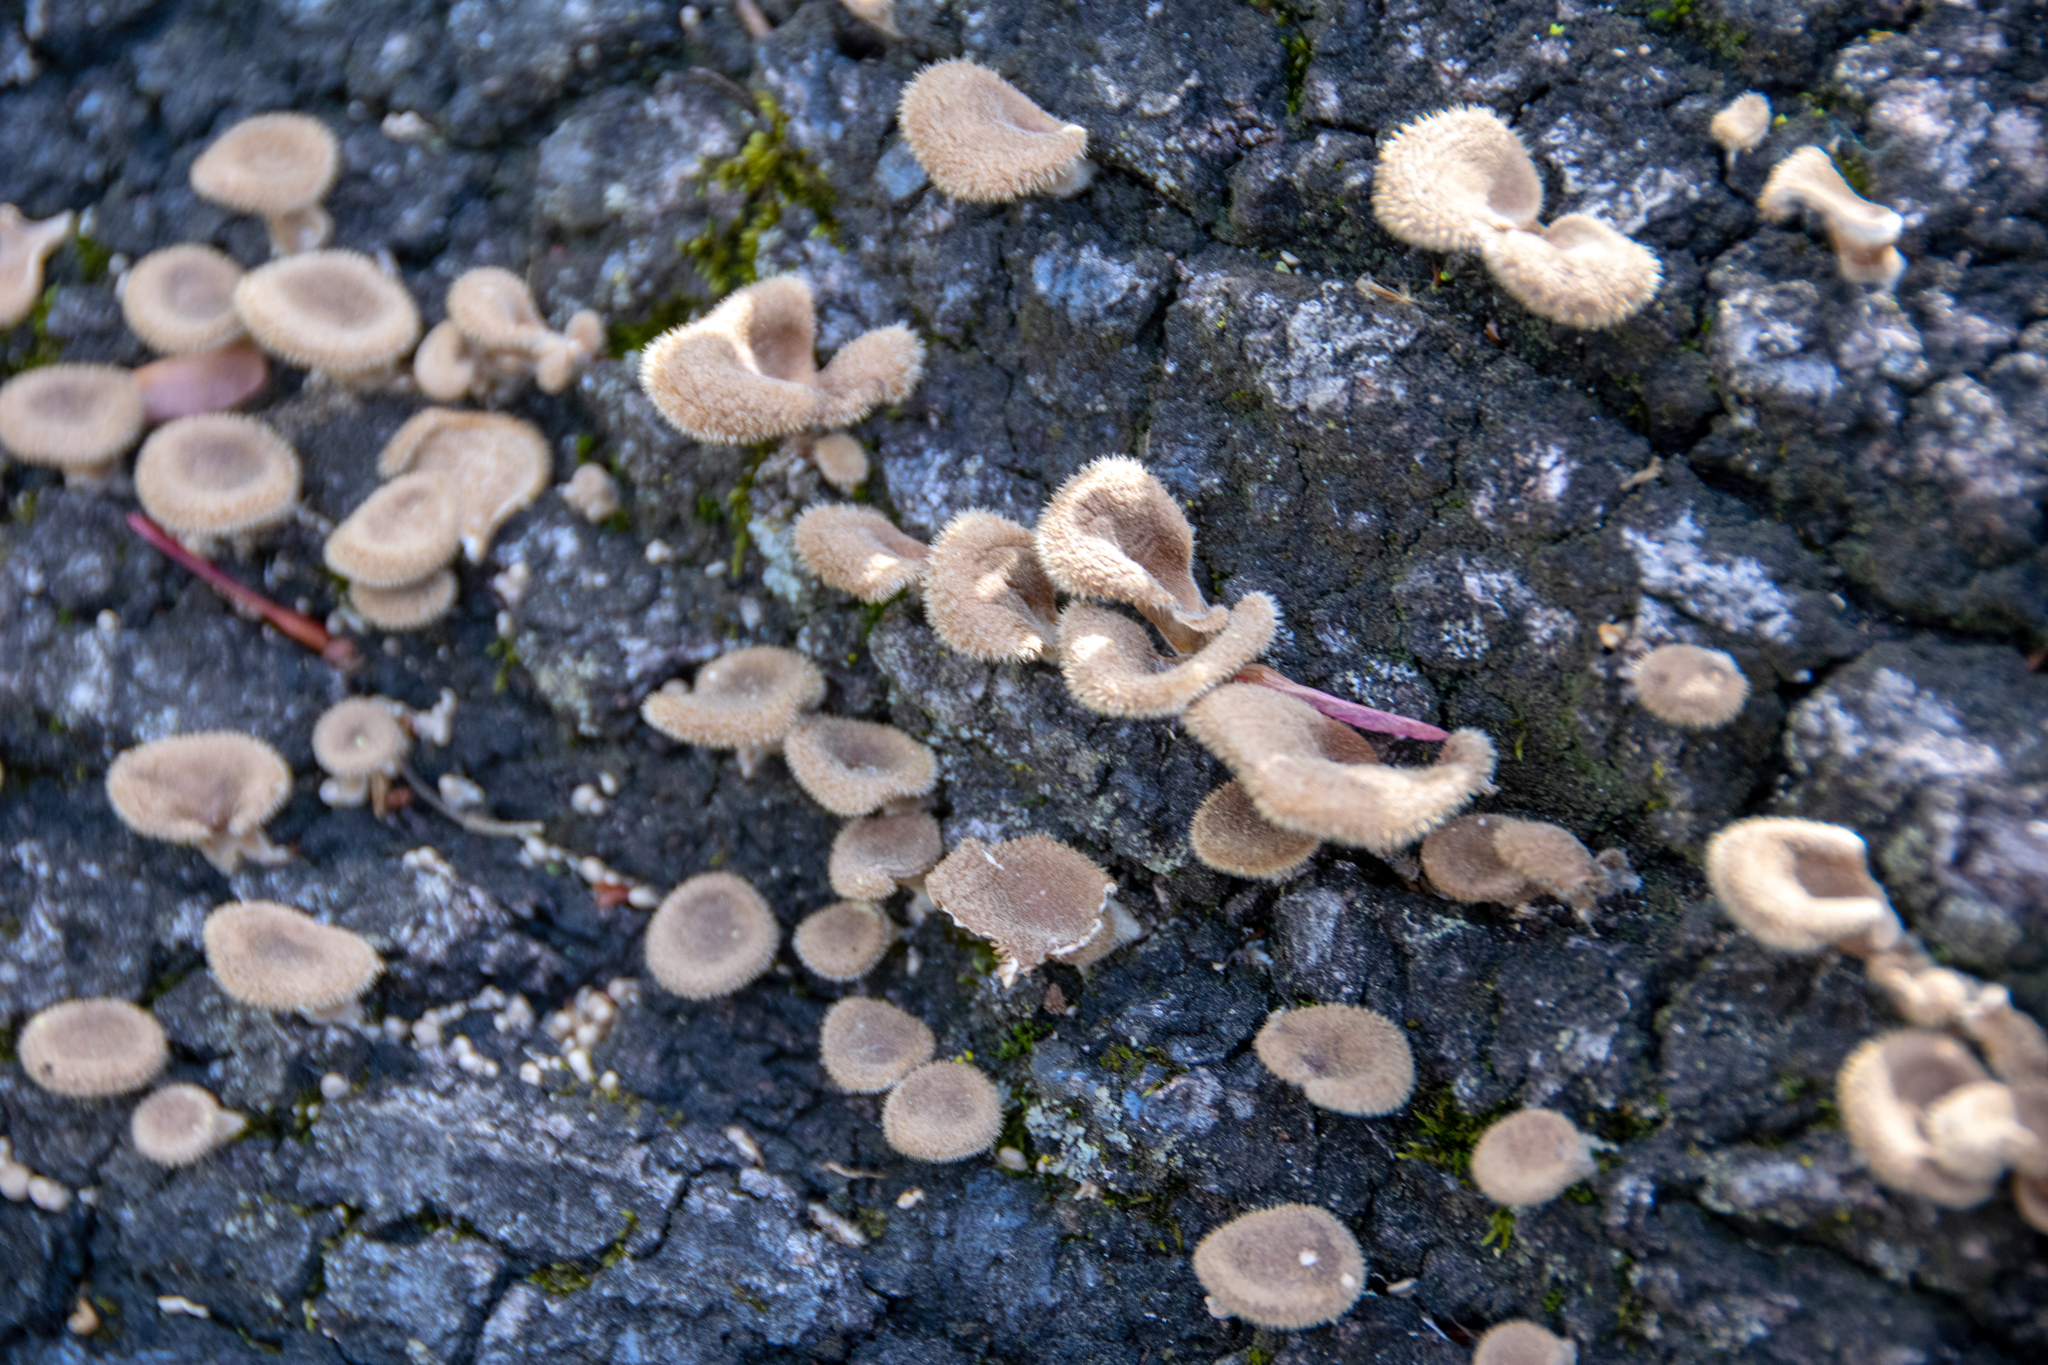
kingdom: Fungi
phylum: Basidiomycota
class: Agaricomycetes
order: Polyporales
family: Panaceae
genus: Panus
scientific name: Panus neostrigosus
